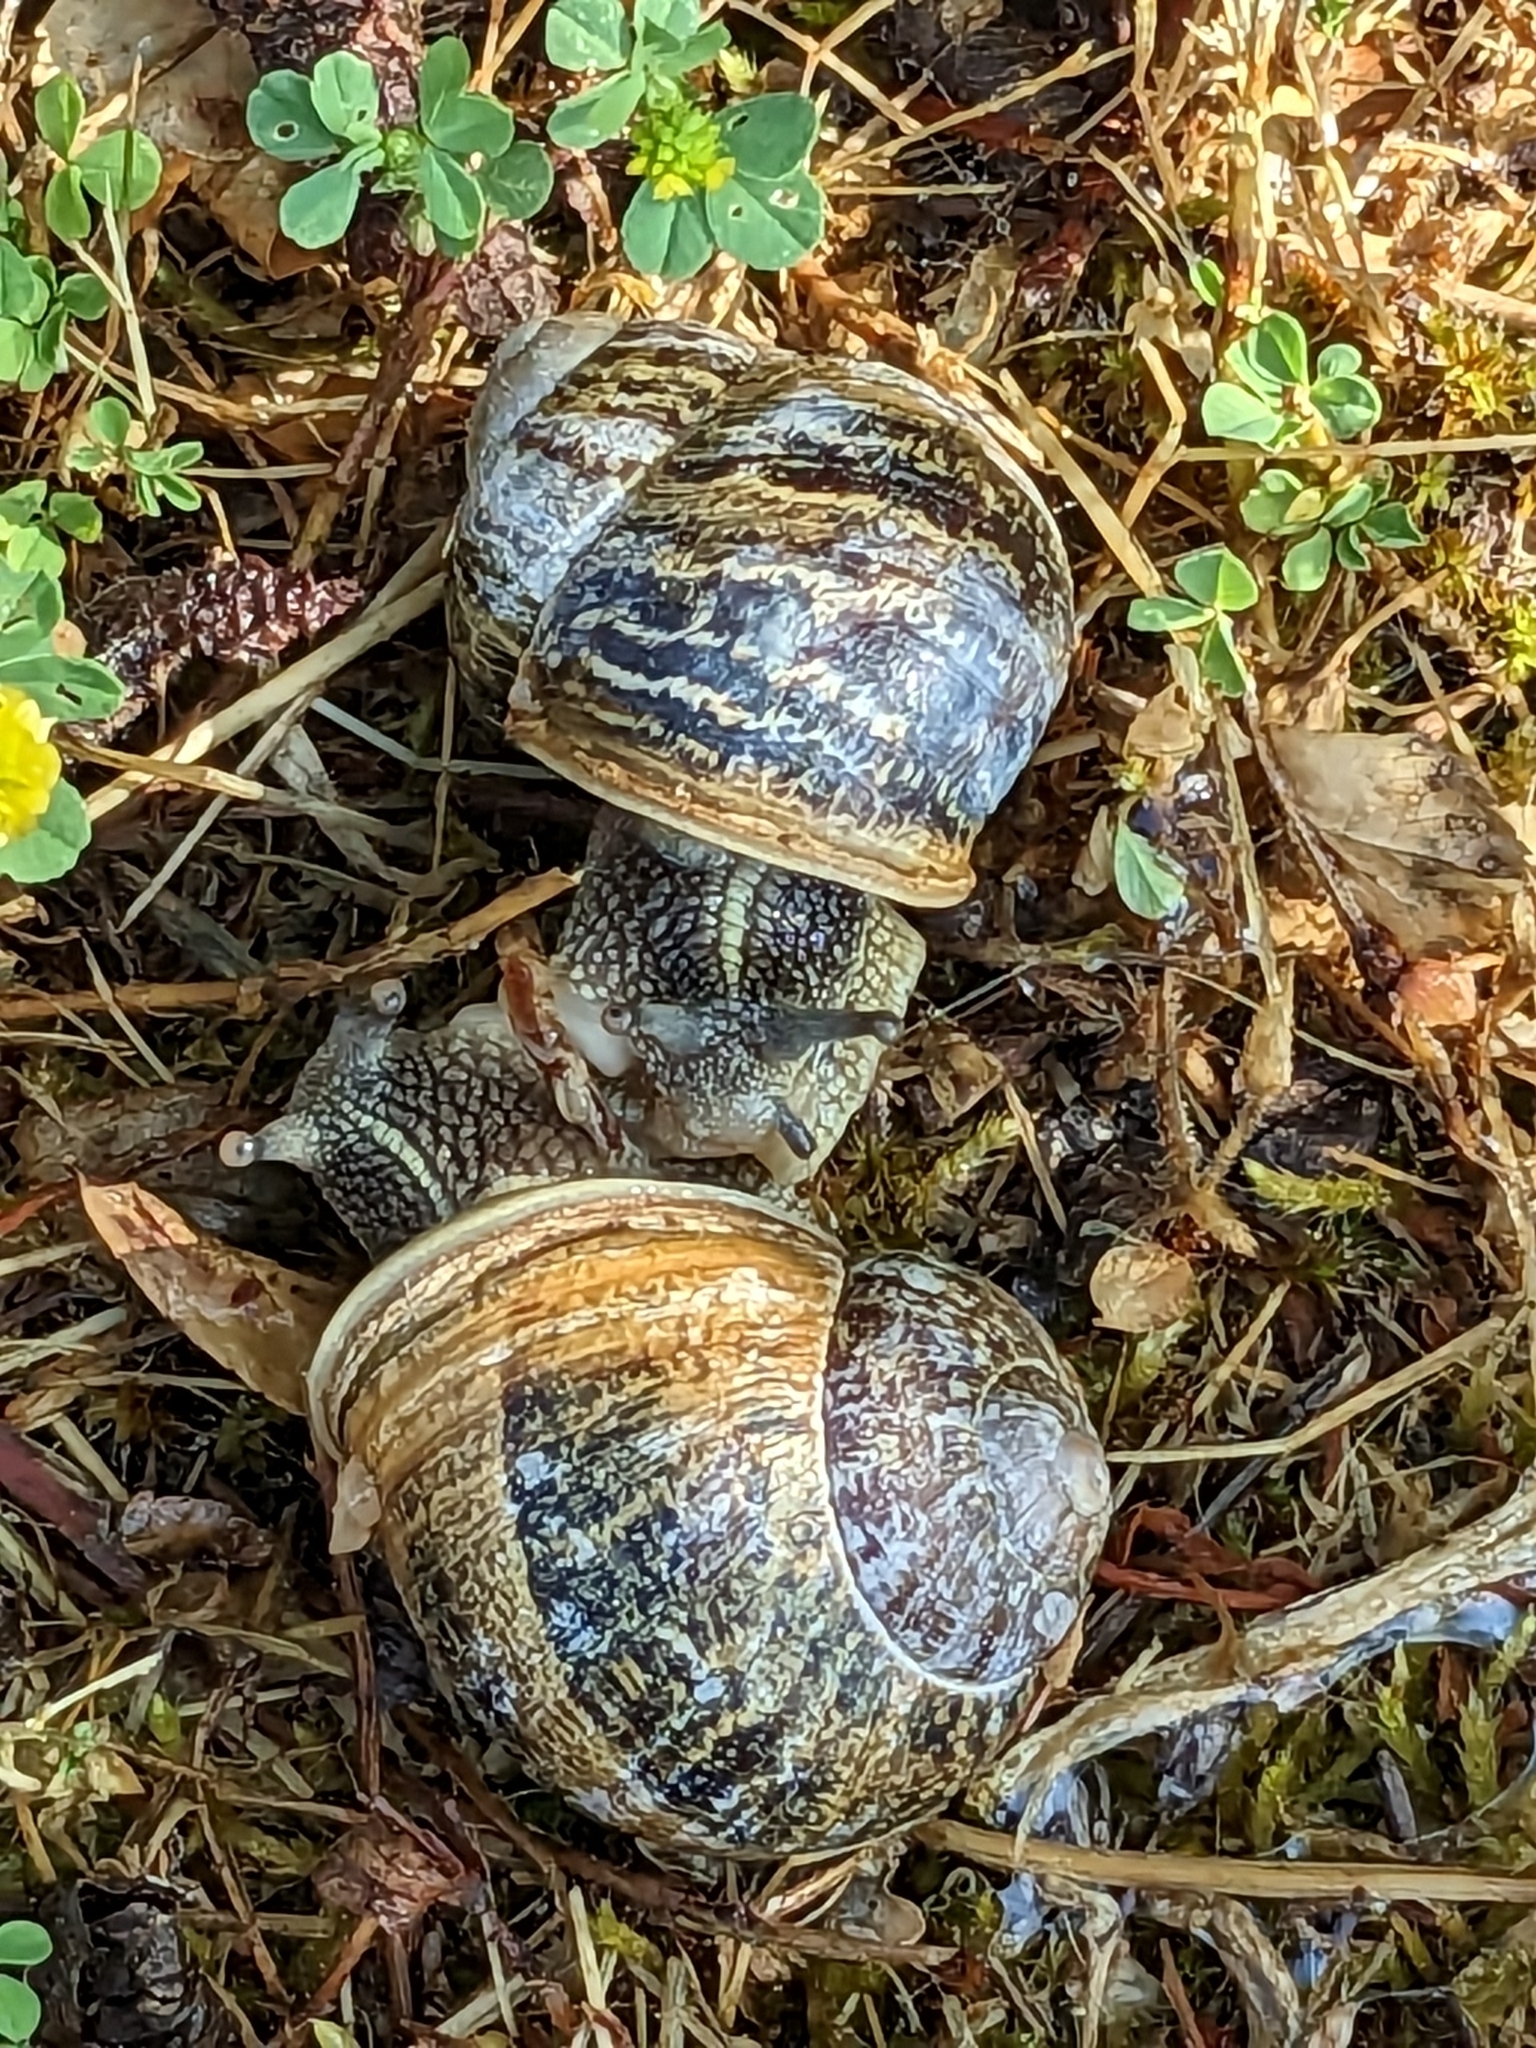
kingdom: Animalia
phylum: Mollusca
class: Gastropoda
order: Stylommatophora
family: Helicidae
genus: Cornu
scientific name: Cornu aspersum
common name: Brown garden snail
